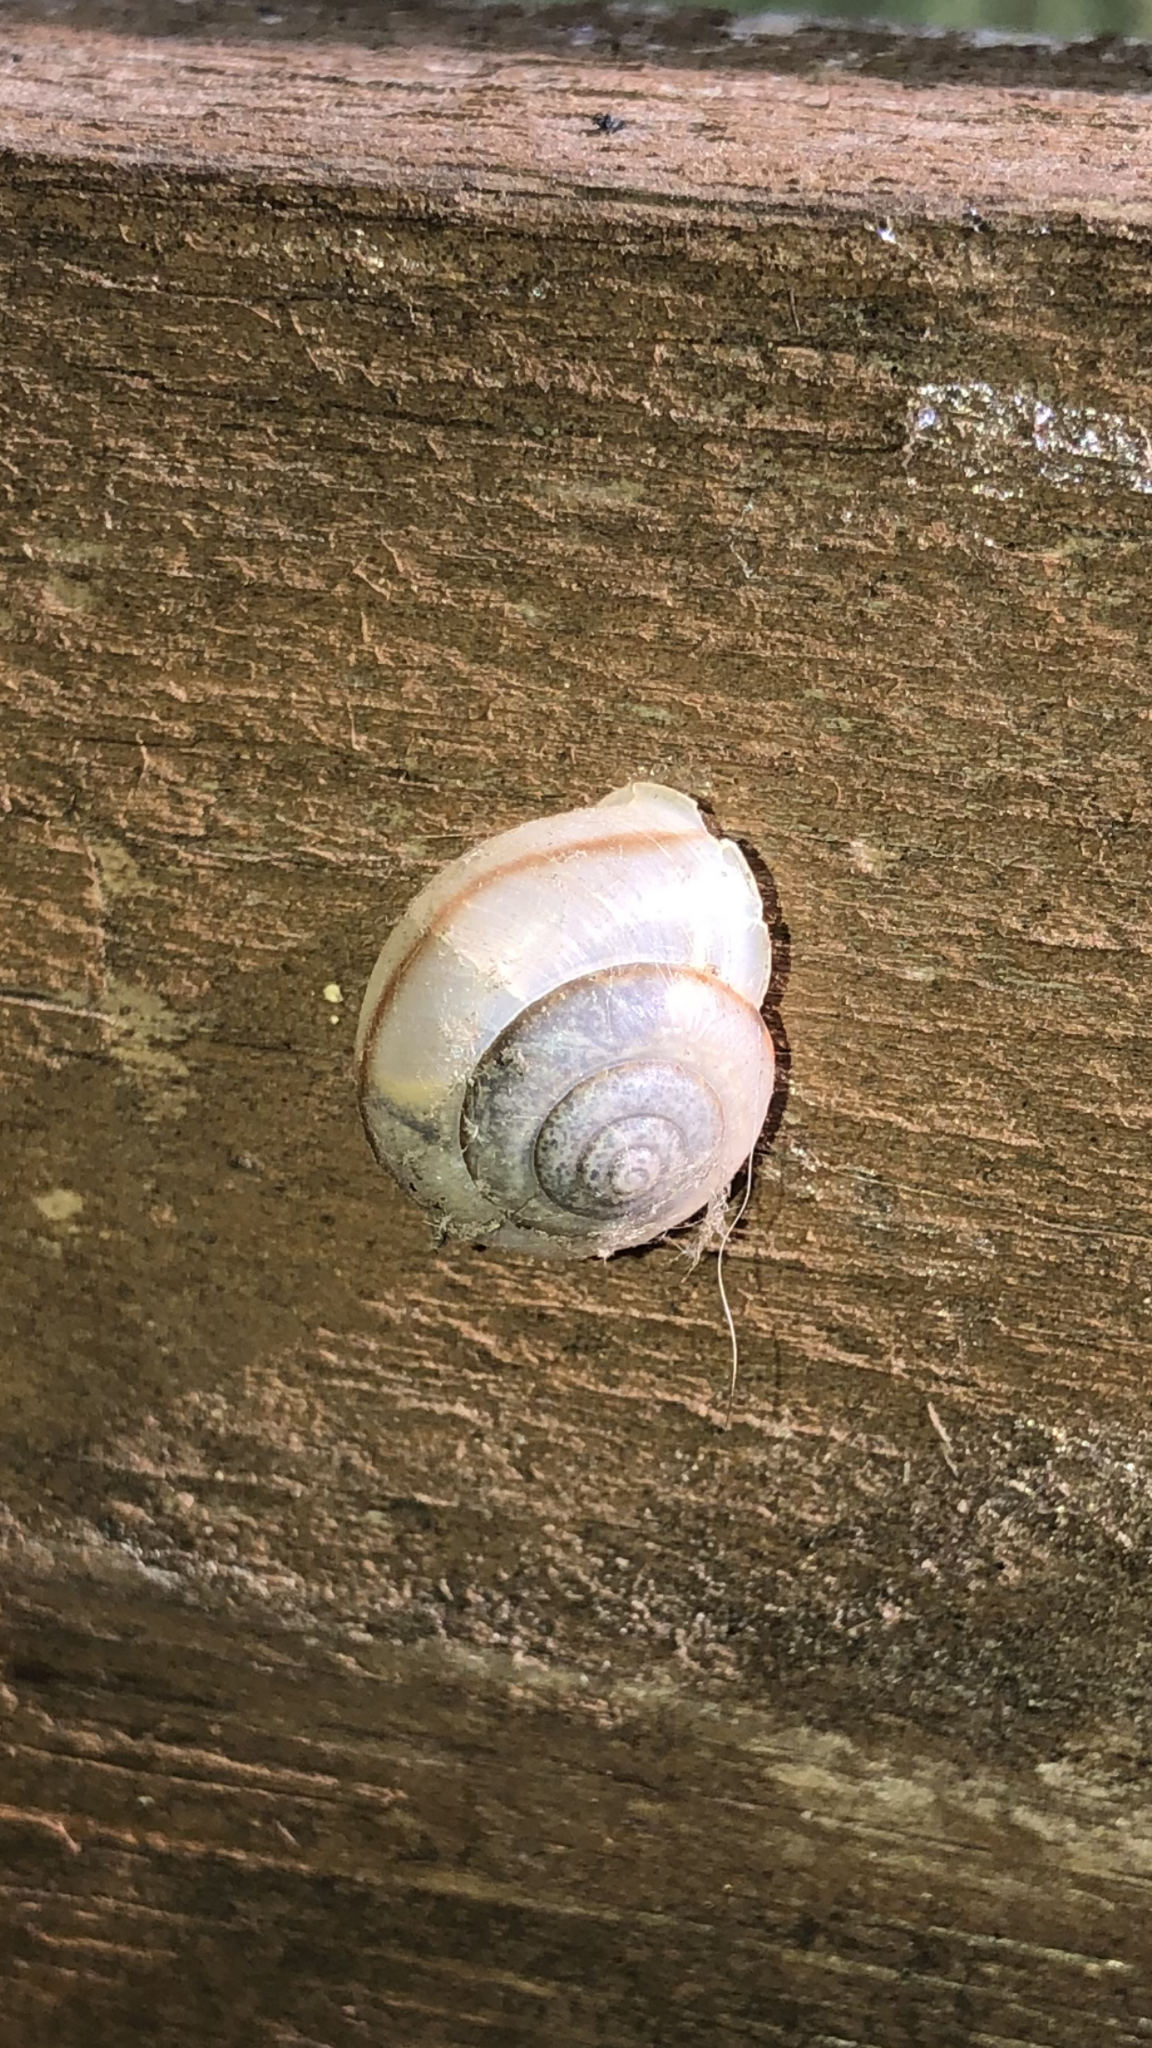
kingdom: Animalia
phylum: Mollusca
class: Gastropoda
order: Stylommatophora
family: Camaenidae
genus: Bradybaena
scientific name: Bradybaena similaris
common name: Asian trampsnail
